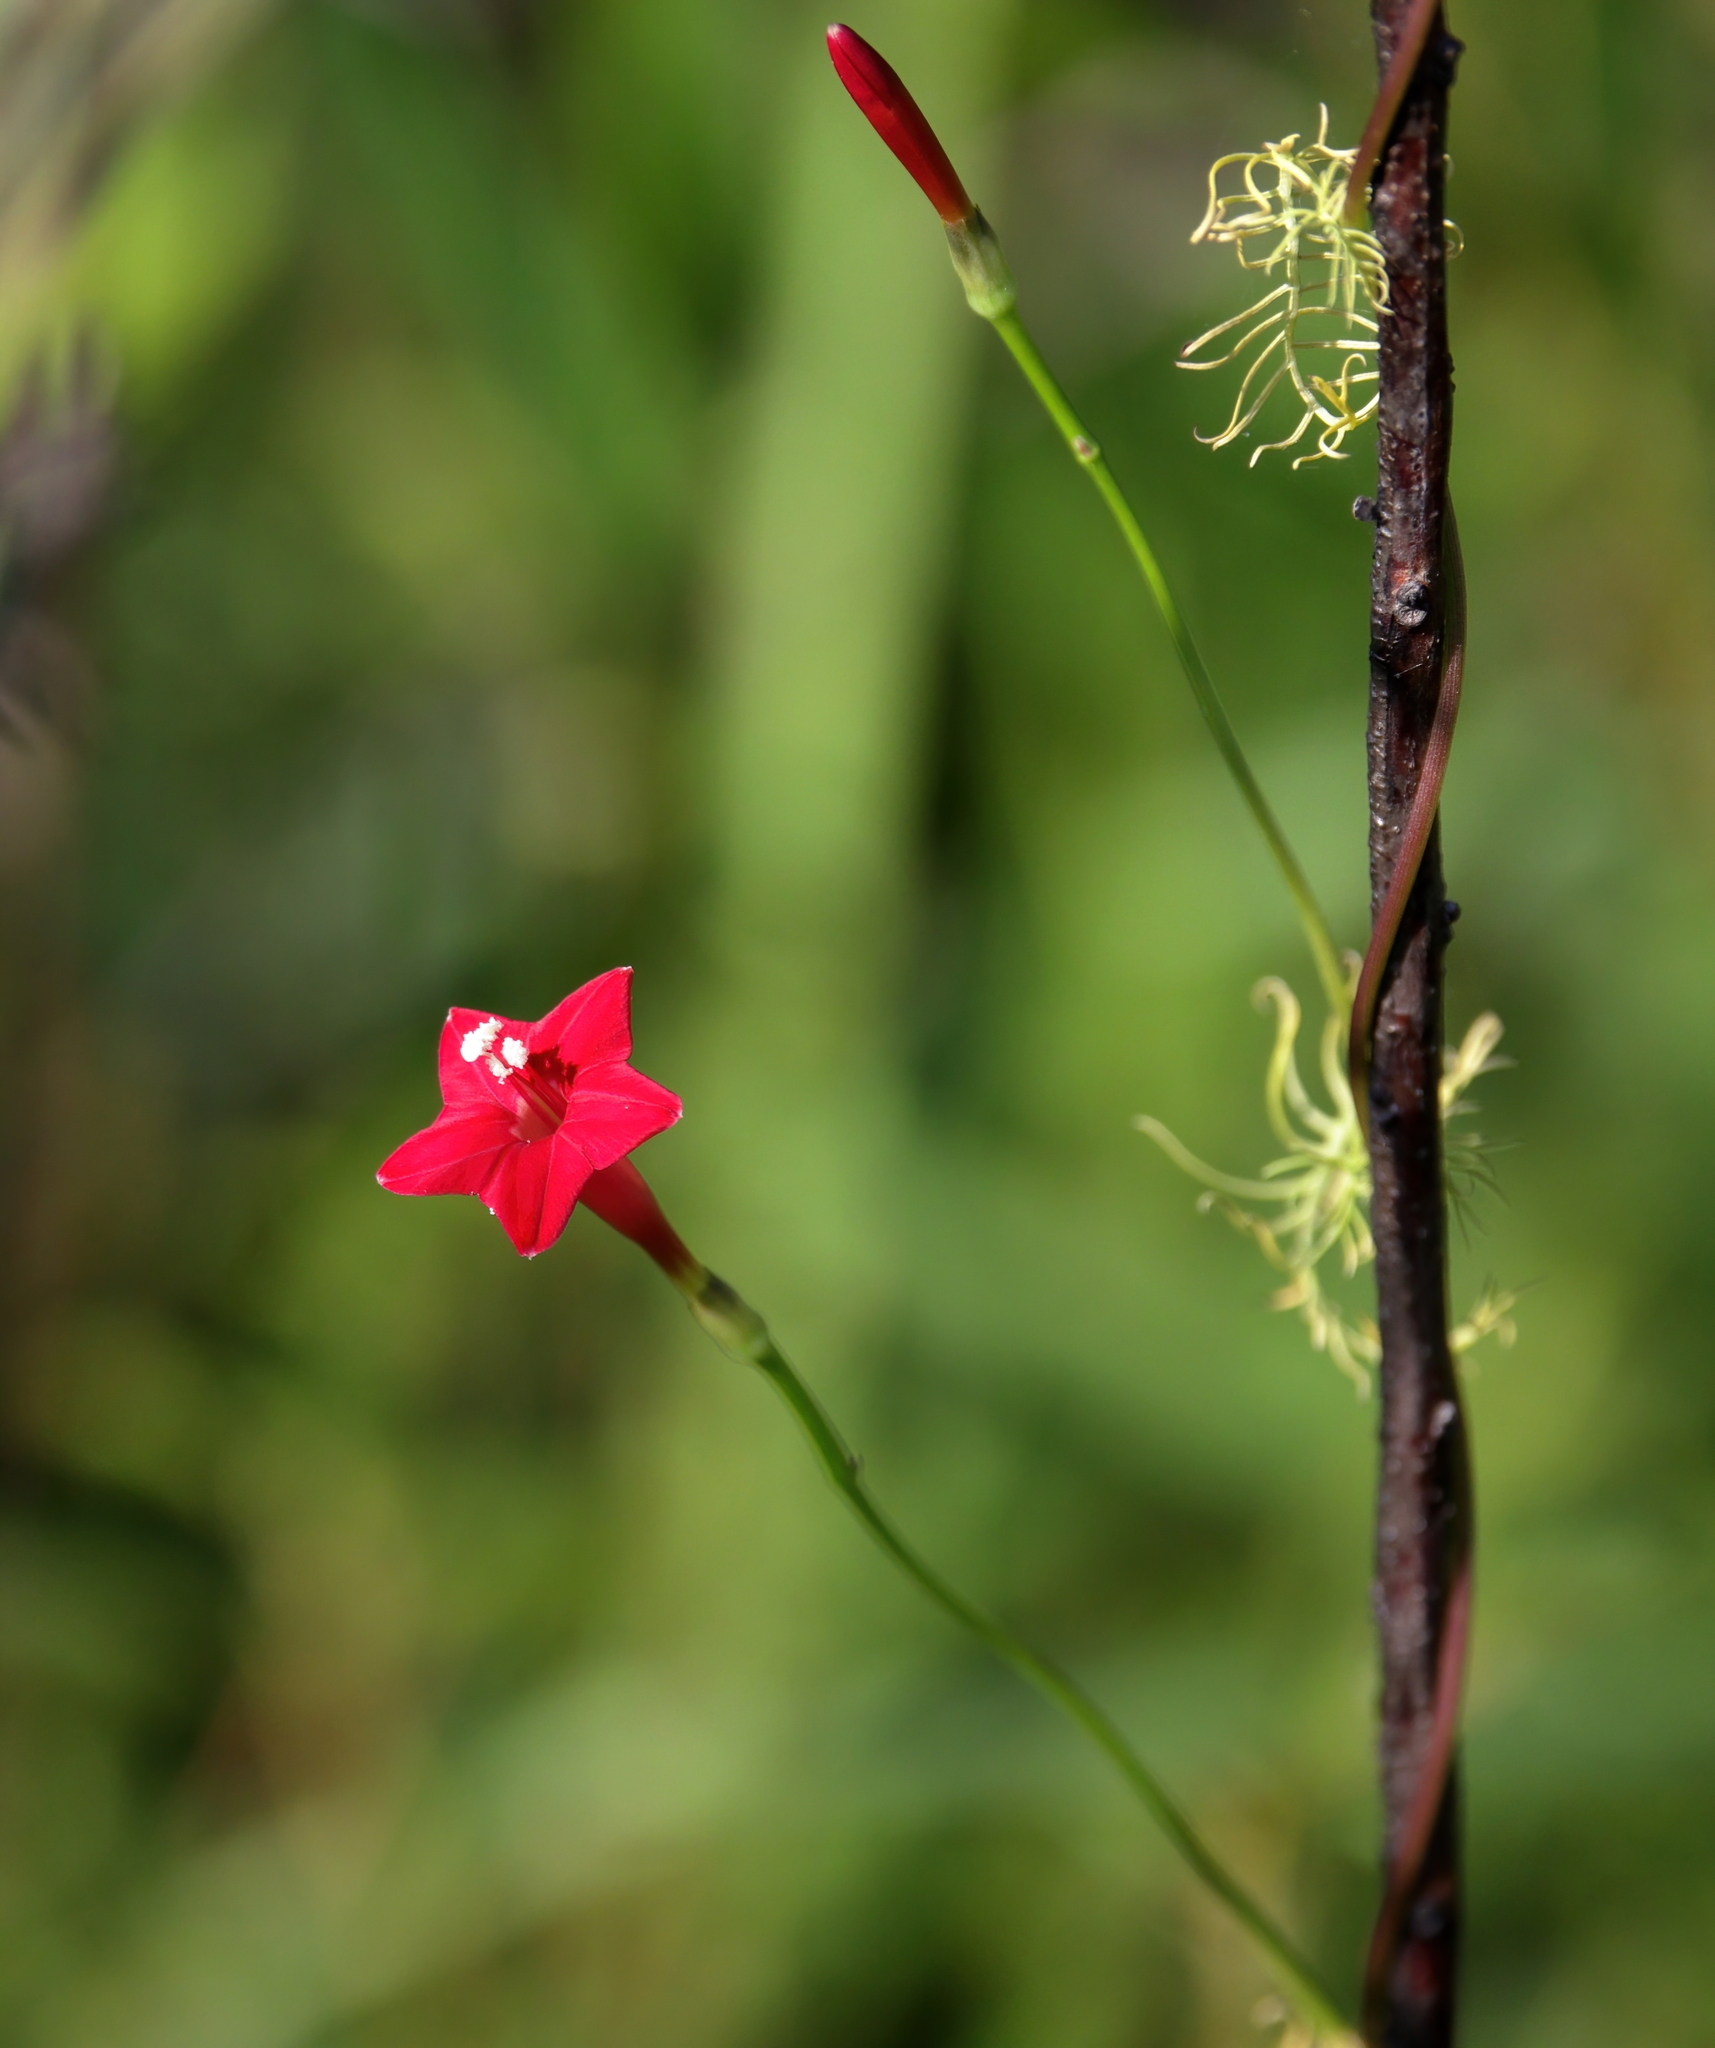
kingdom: Plantae
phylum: Tracheophyta
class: Magnoliopsida
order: Solanales
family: Convolvulaceae
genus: Ipomoea
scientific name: Ipomoea quamoclit
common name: Cypress vine
